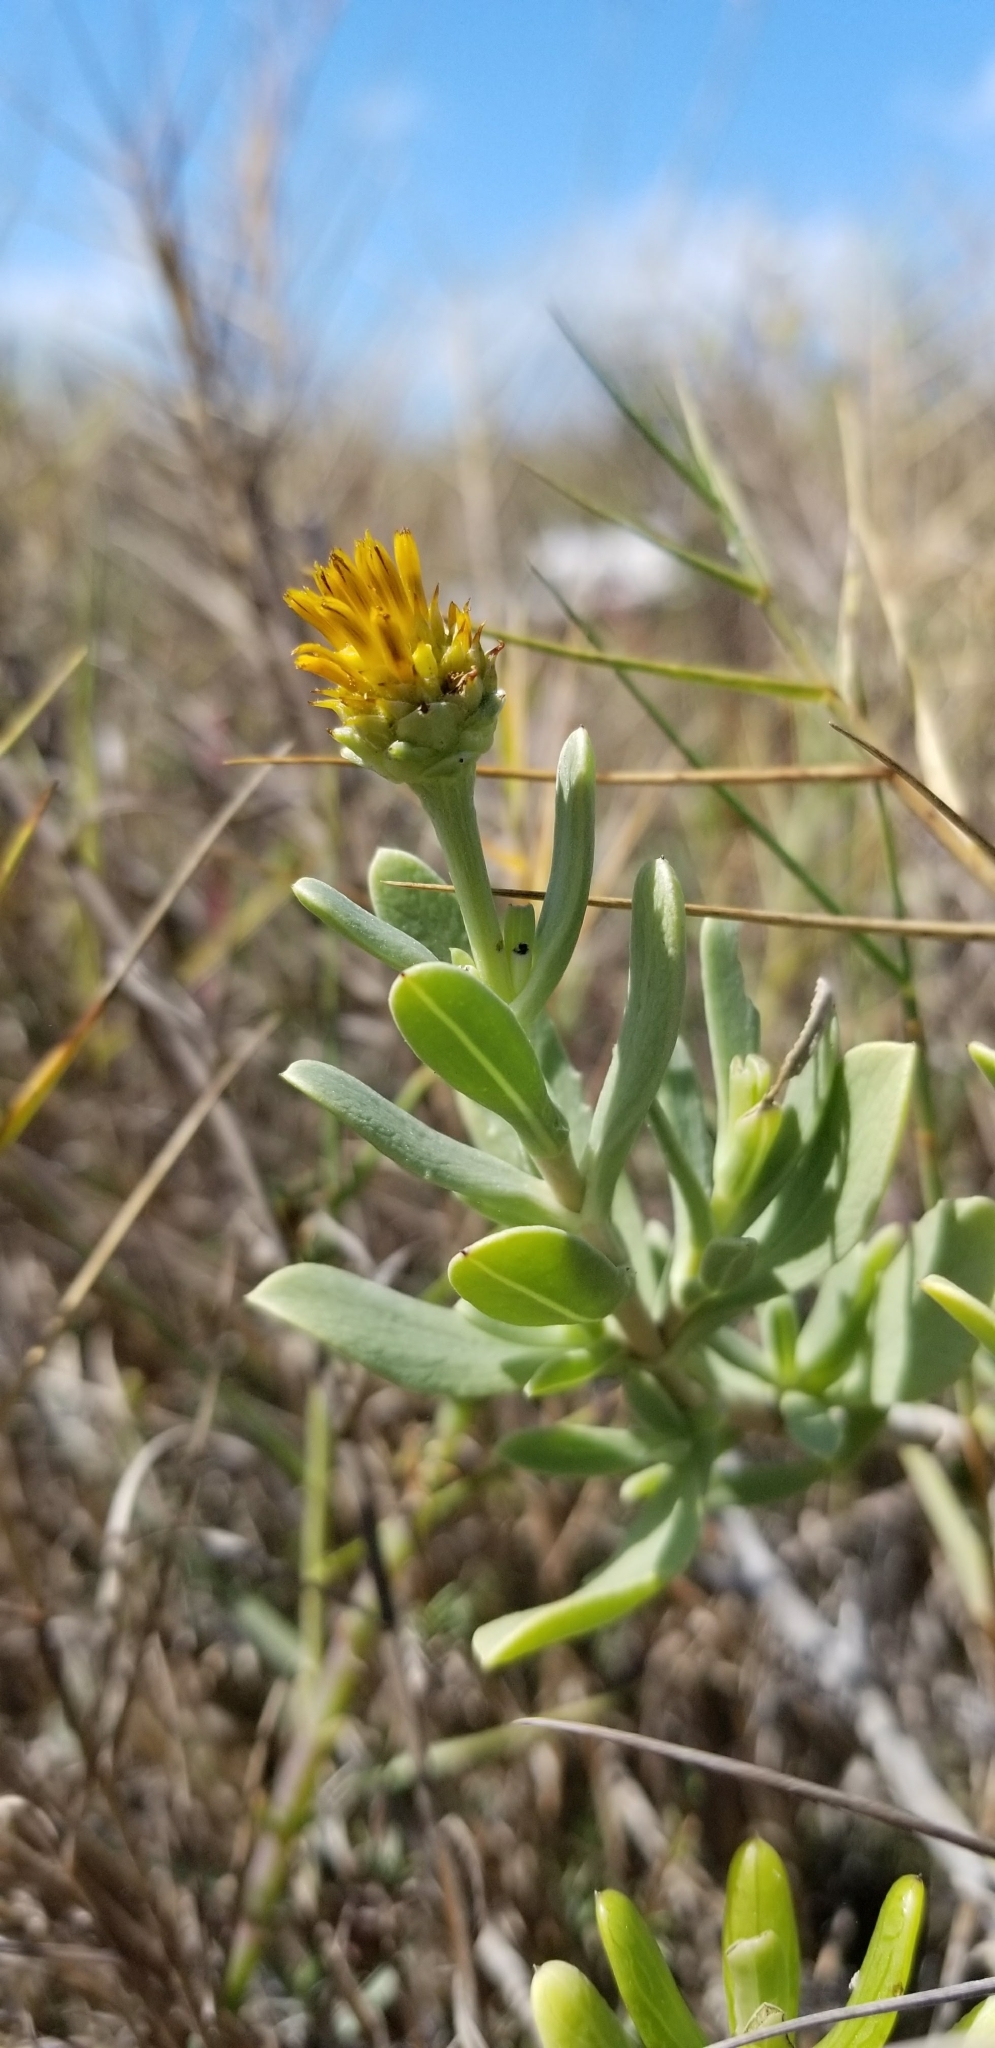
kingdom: Plantae
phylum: Tracheophyta
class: Magnoliopsida
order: Asterales
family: Asteraceae
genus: Borrichia
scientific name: Borrichia frutescens
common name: Sea oxeye
